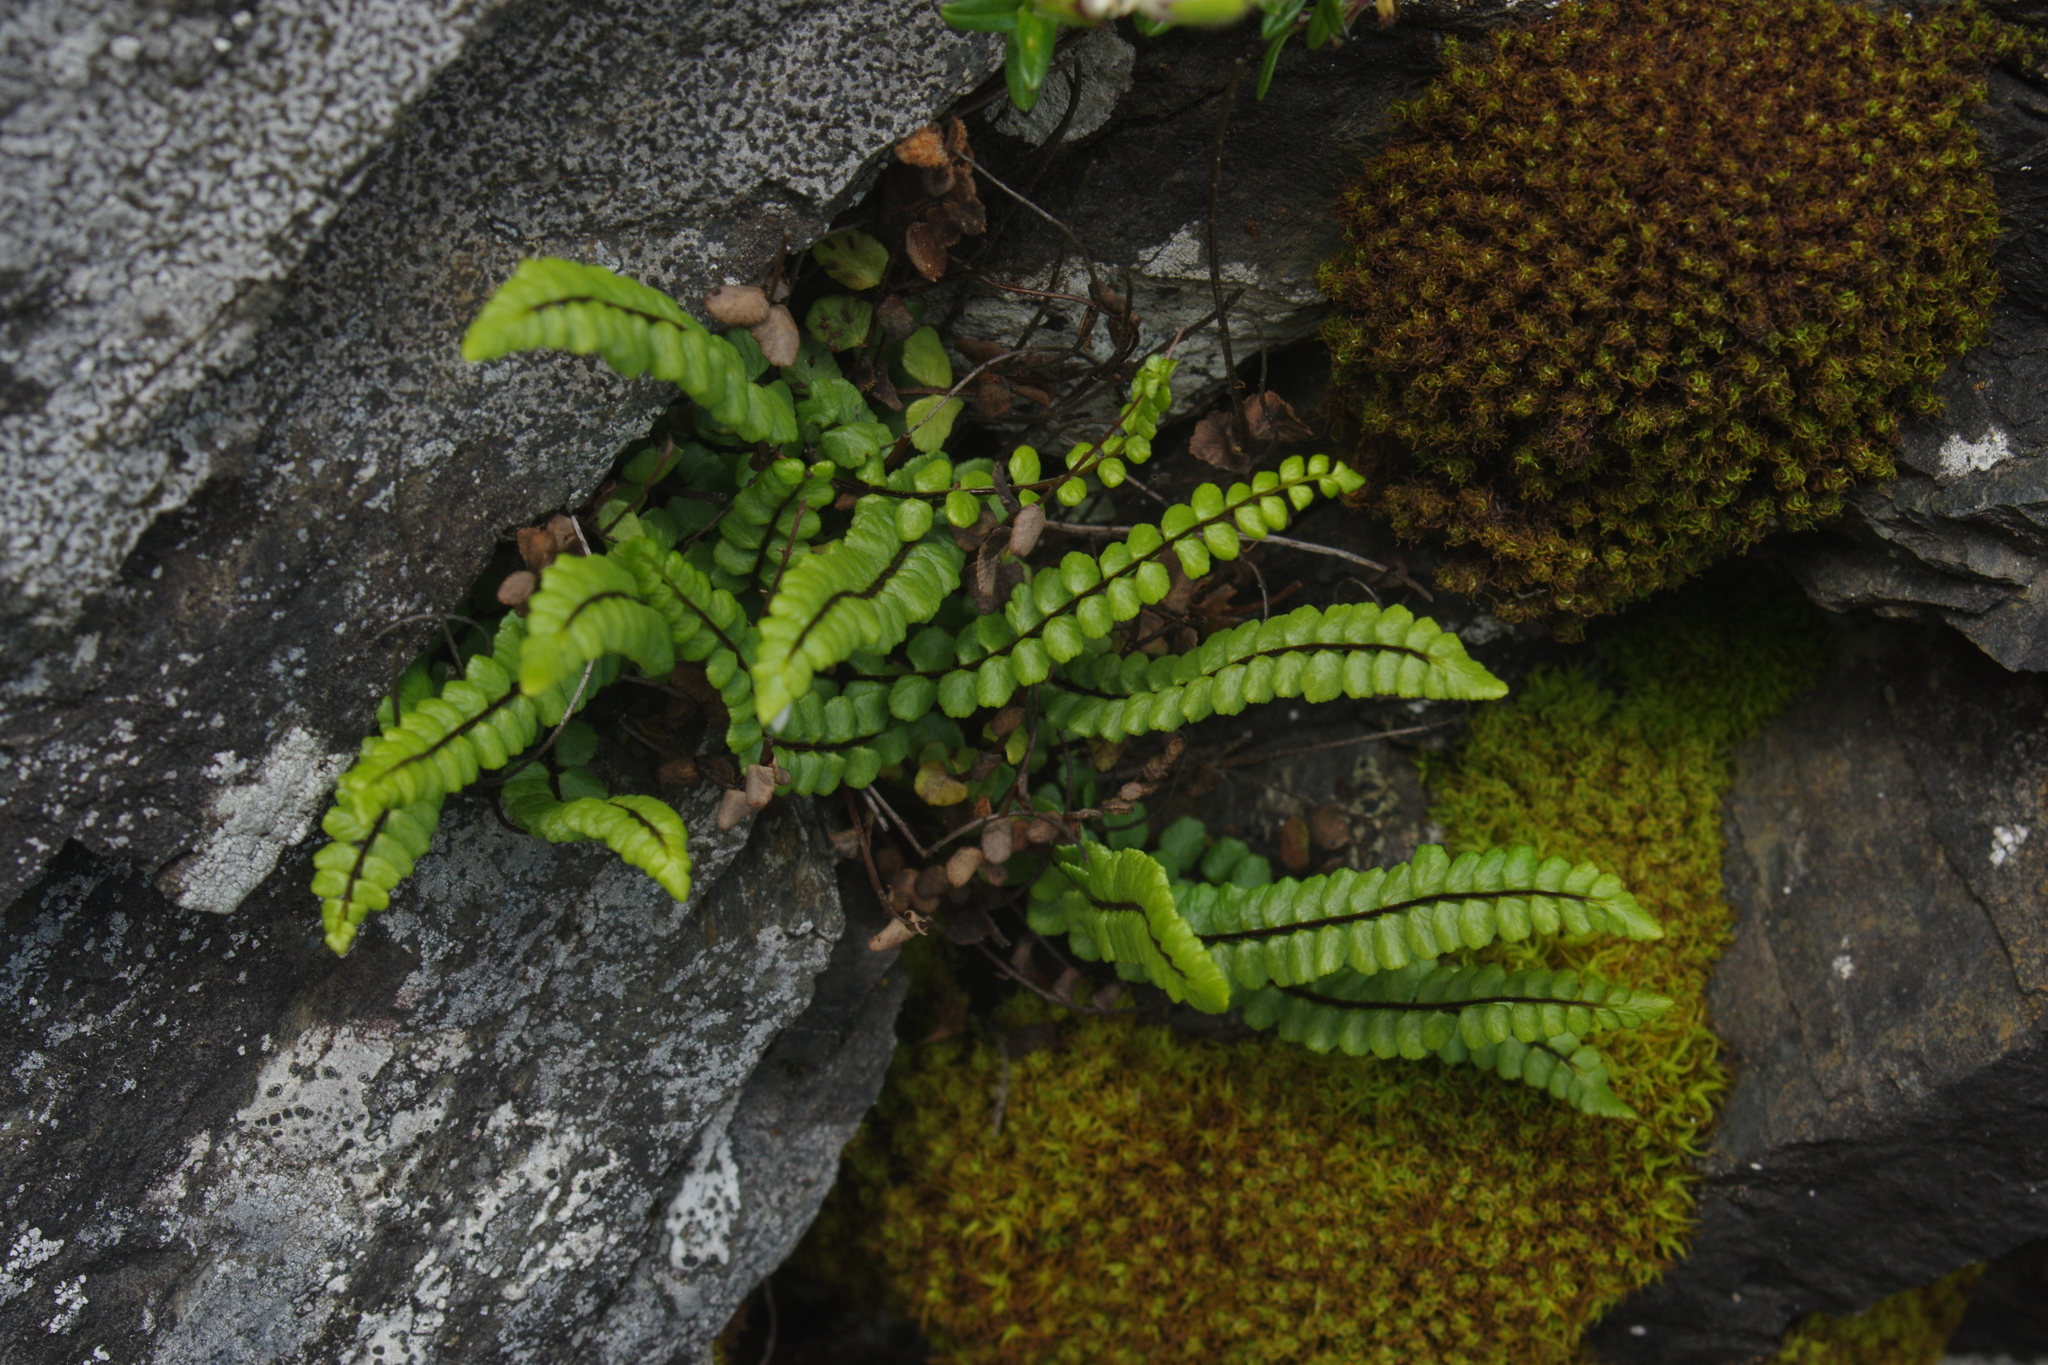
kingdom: Plantae
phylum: Tracheophyta
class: Polypodiopsida
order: Polypodiales
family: Aspleniaceae
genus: Asplenium
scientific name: Asplenium trichomanes
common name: Maidenhair spleenwort
